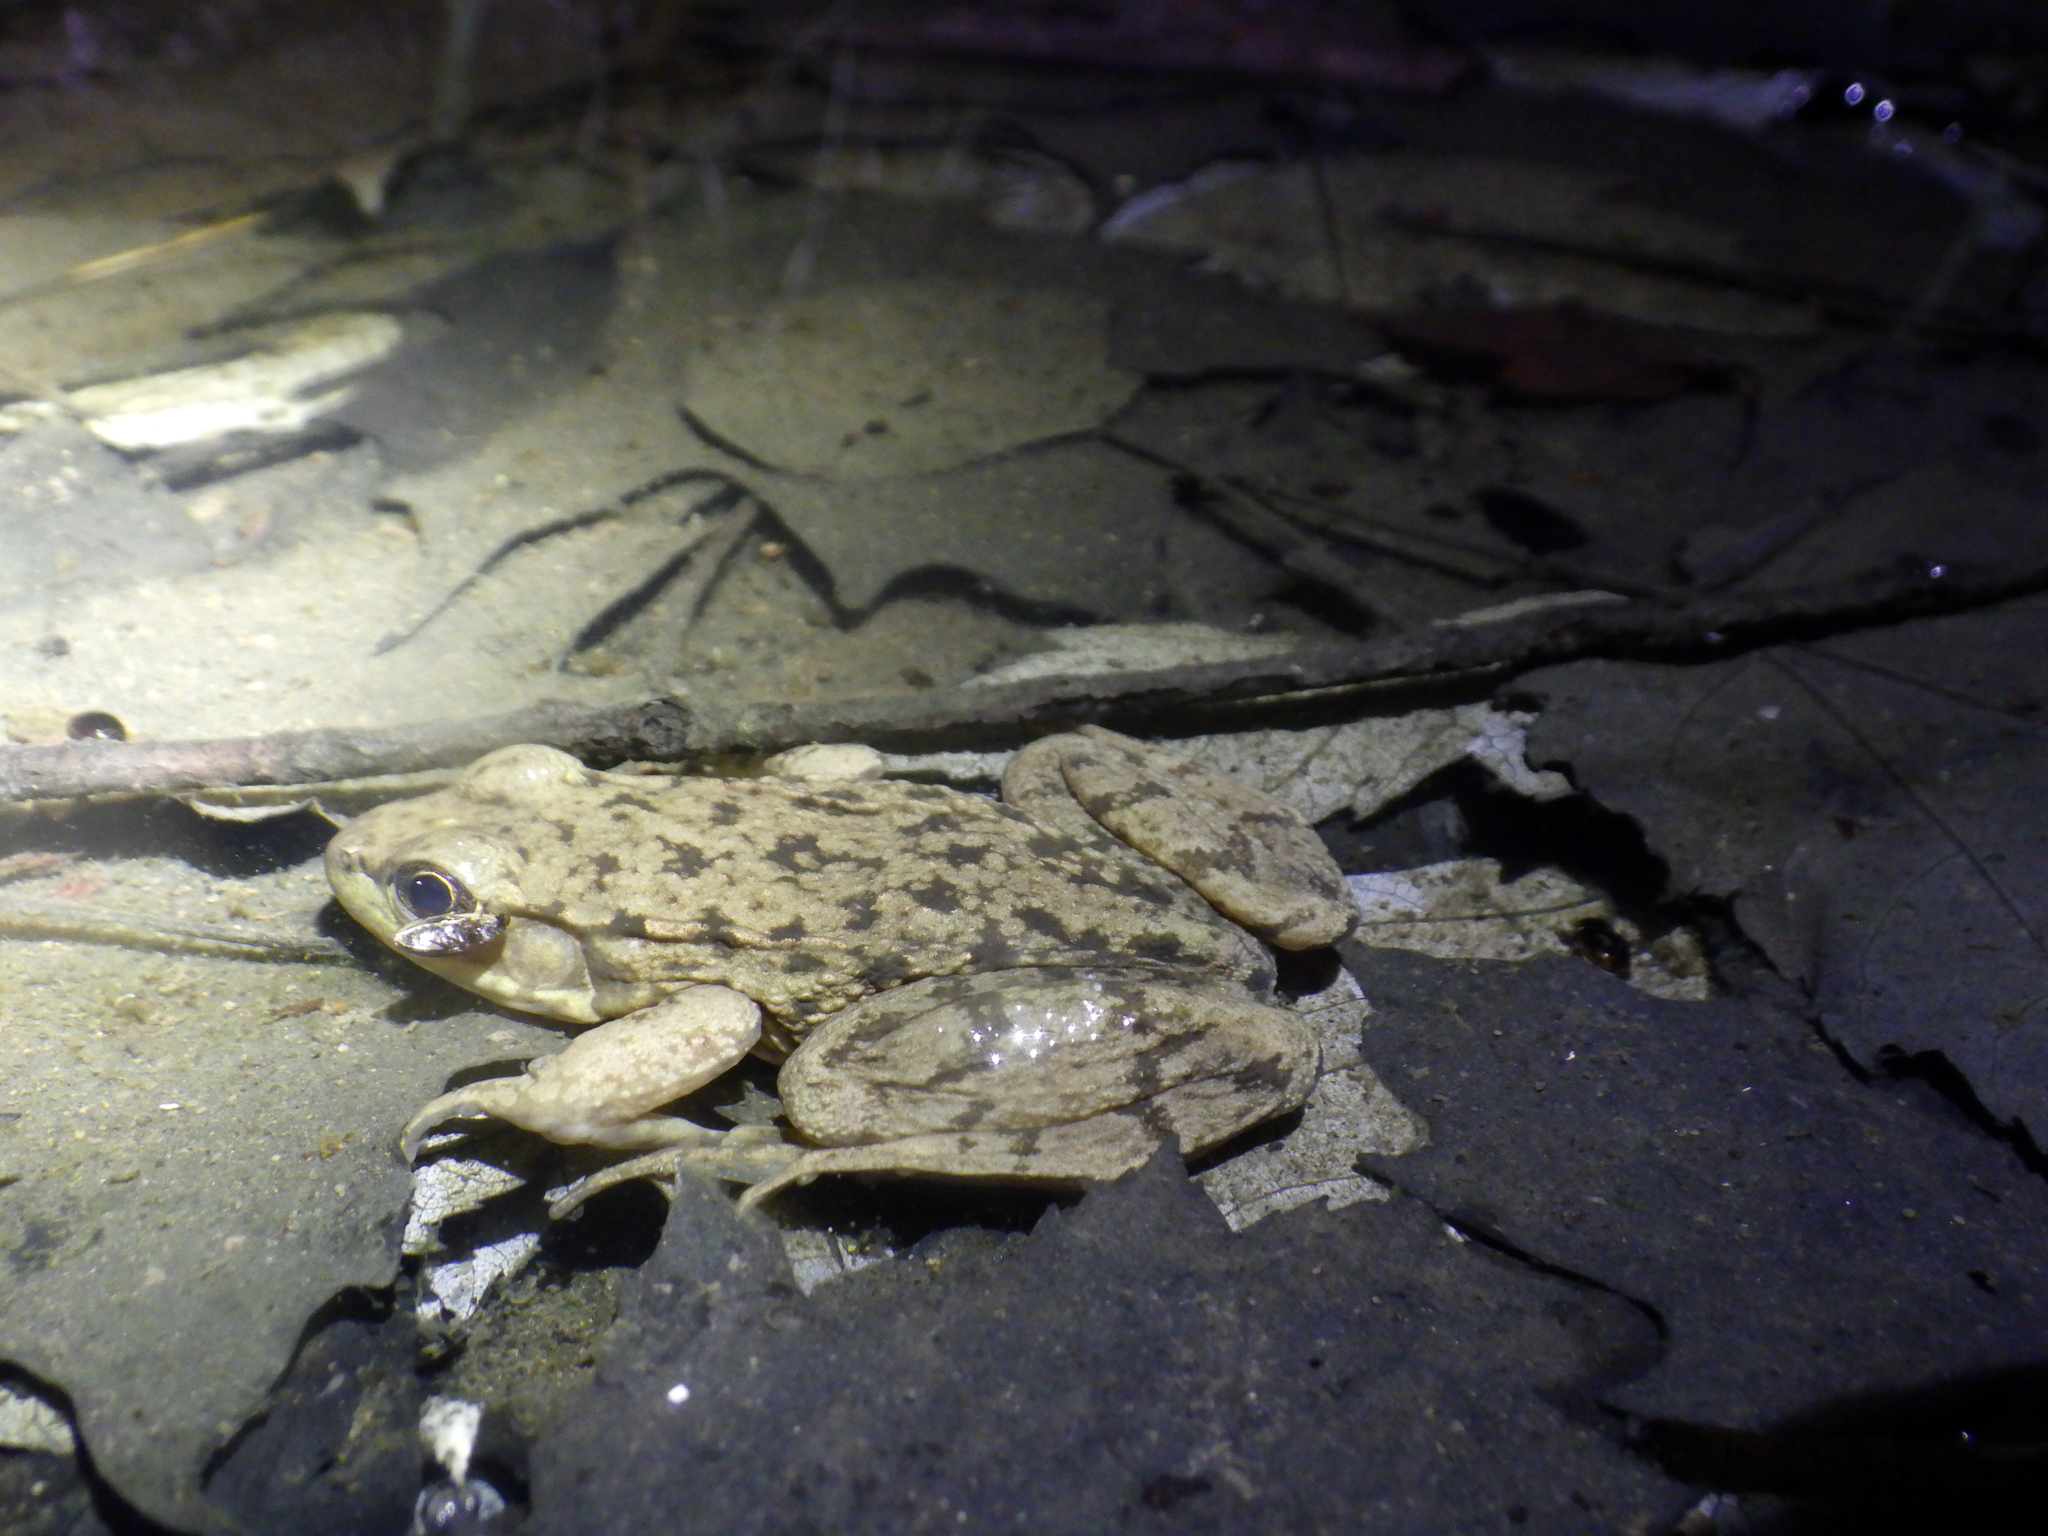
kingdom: Animalia
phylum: Chordata
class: Amphibia
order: Anura
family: Ranidae
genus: Lithobates
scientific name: Lithobates clamitans
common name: Green frog
